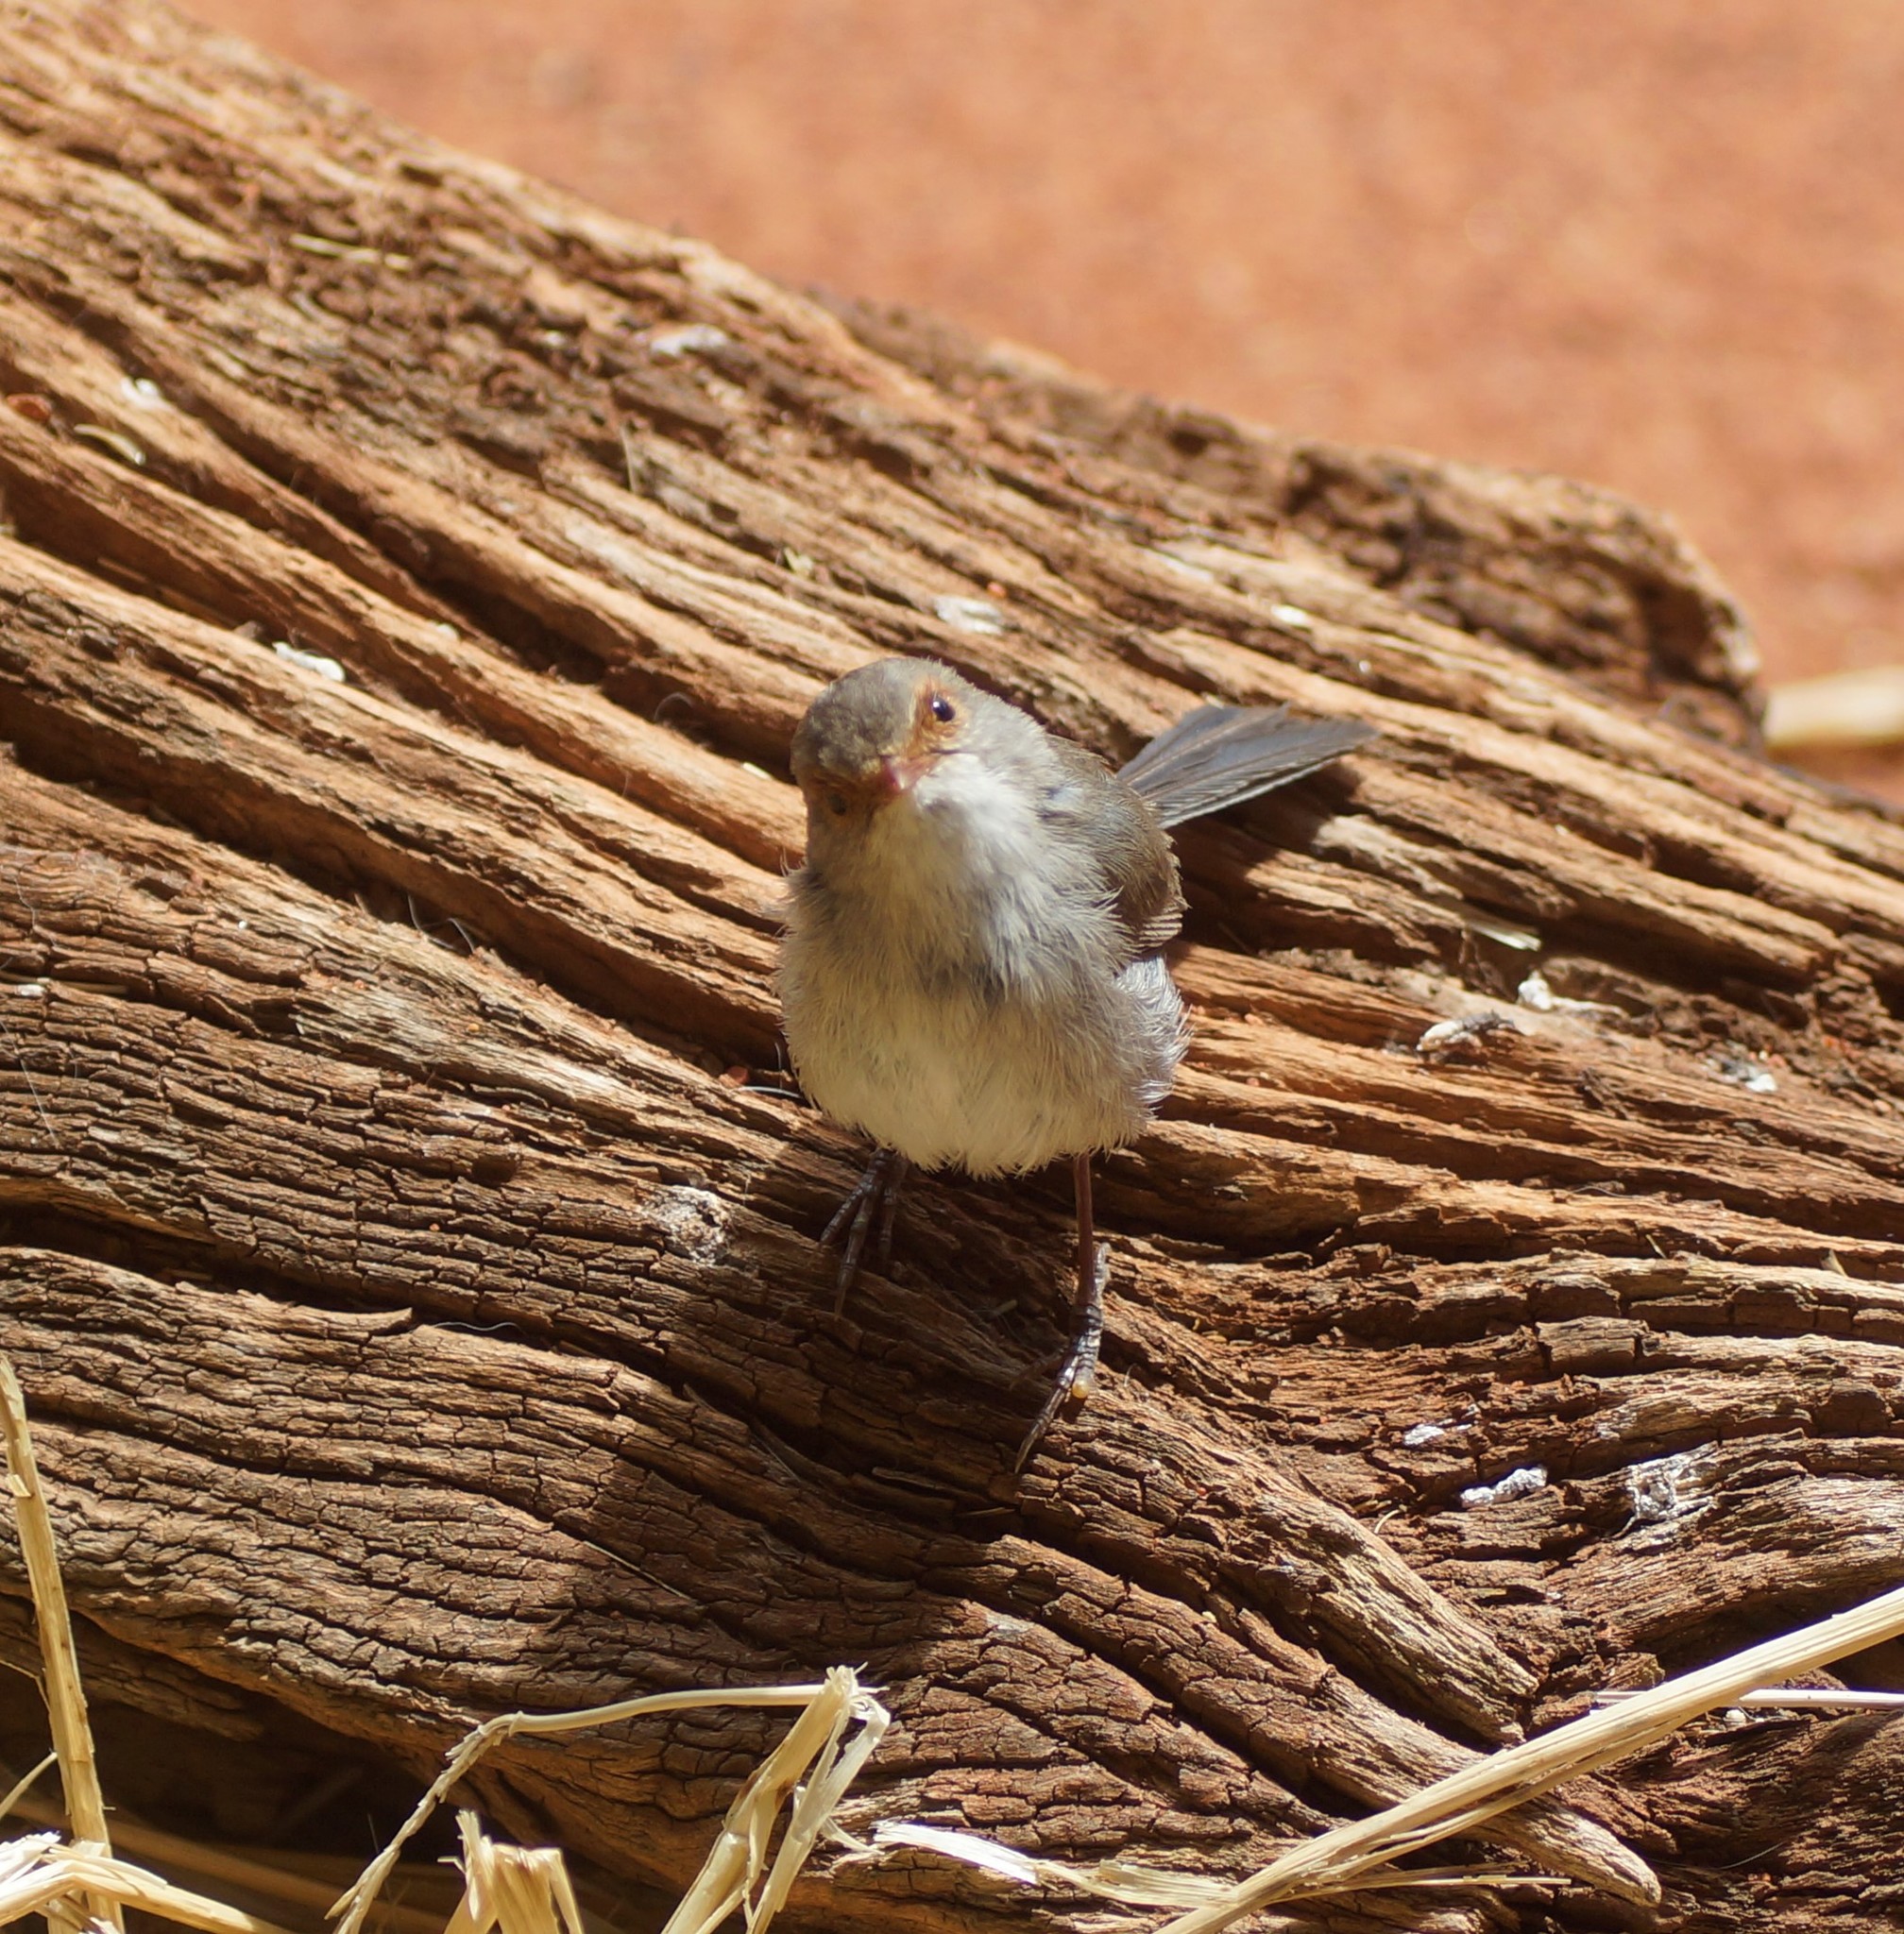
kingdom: Animalia
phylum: Chordata
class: Aves
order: Passeriformes
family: Maluridae
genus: Malurus
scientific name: Malurus cyaneus
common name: Superb fairywren
